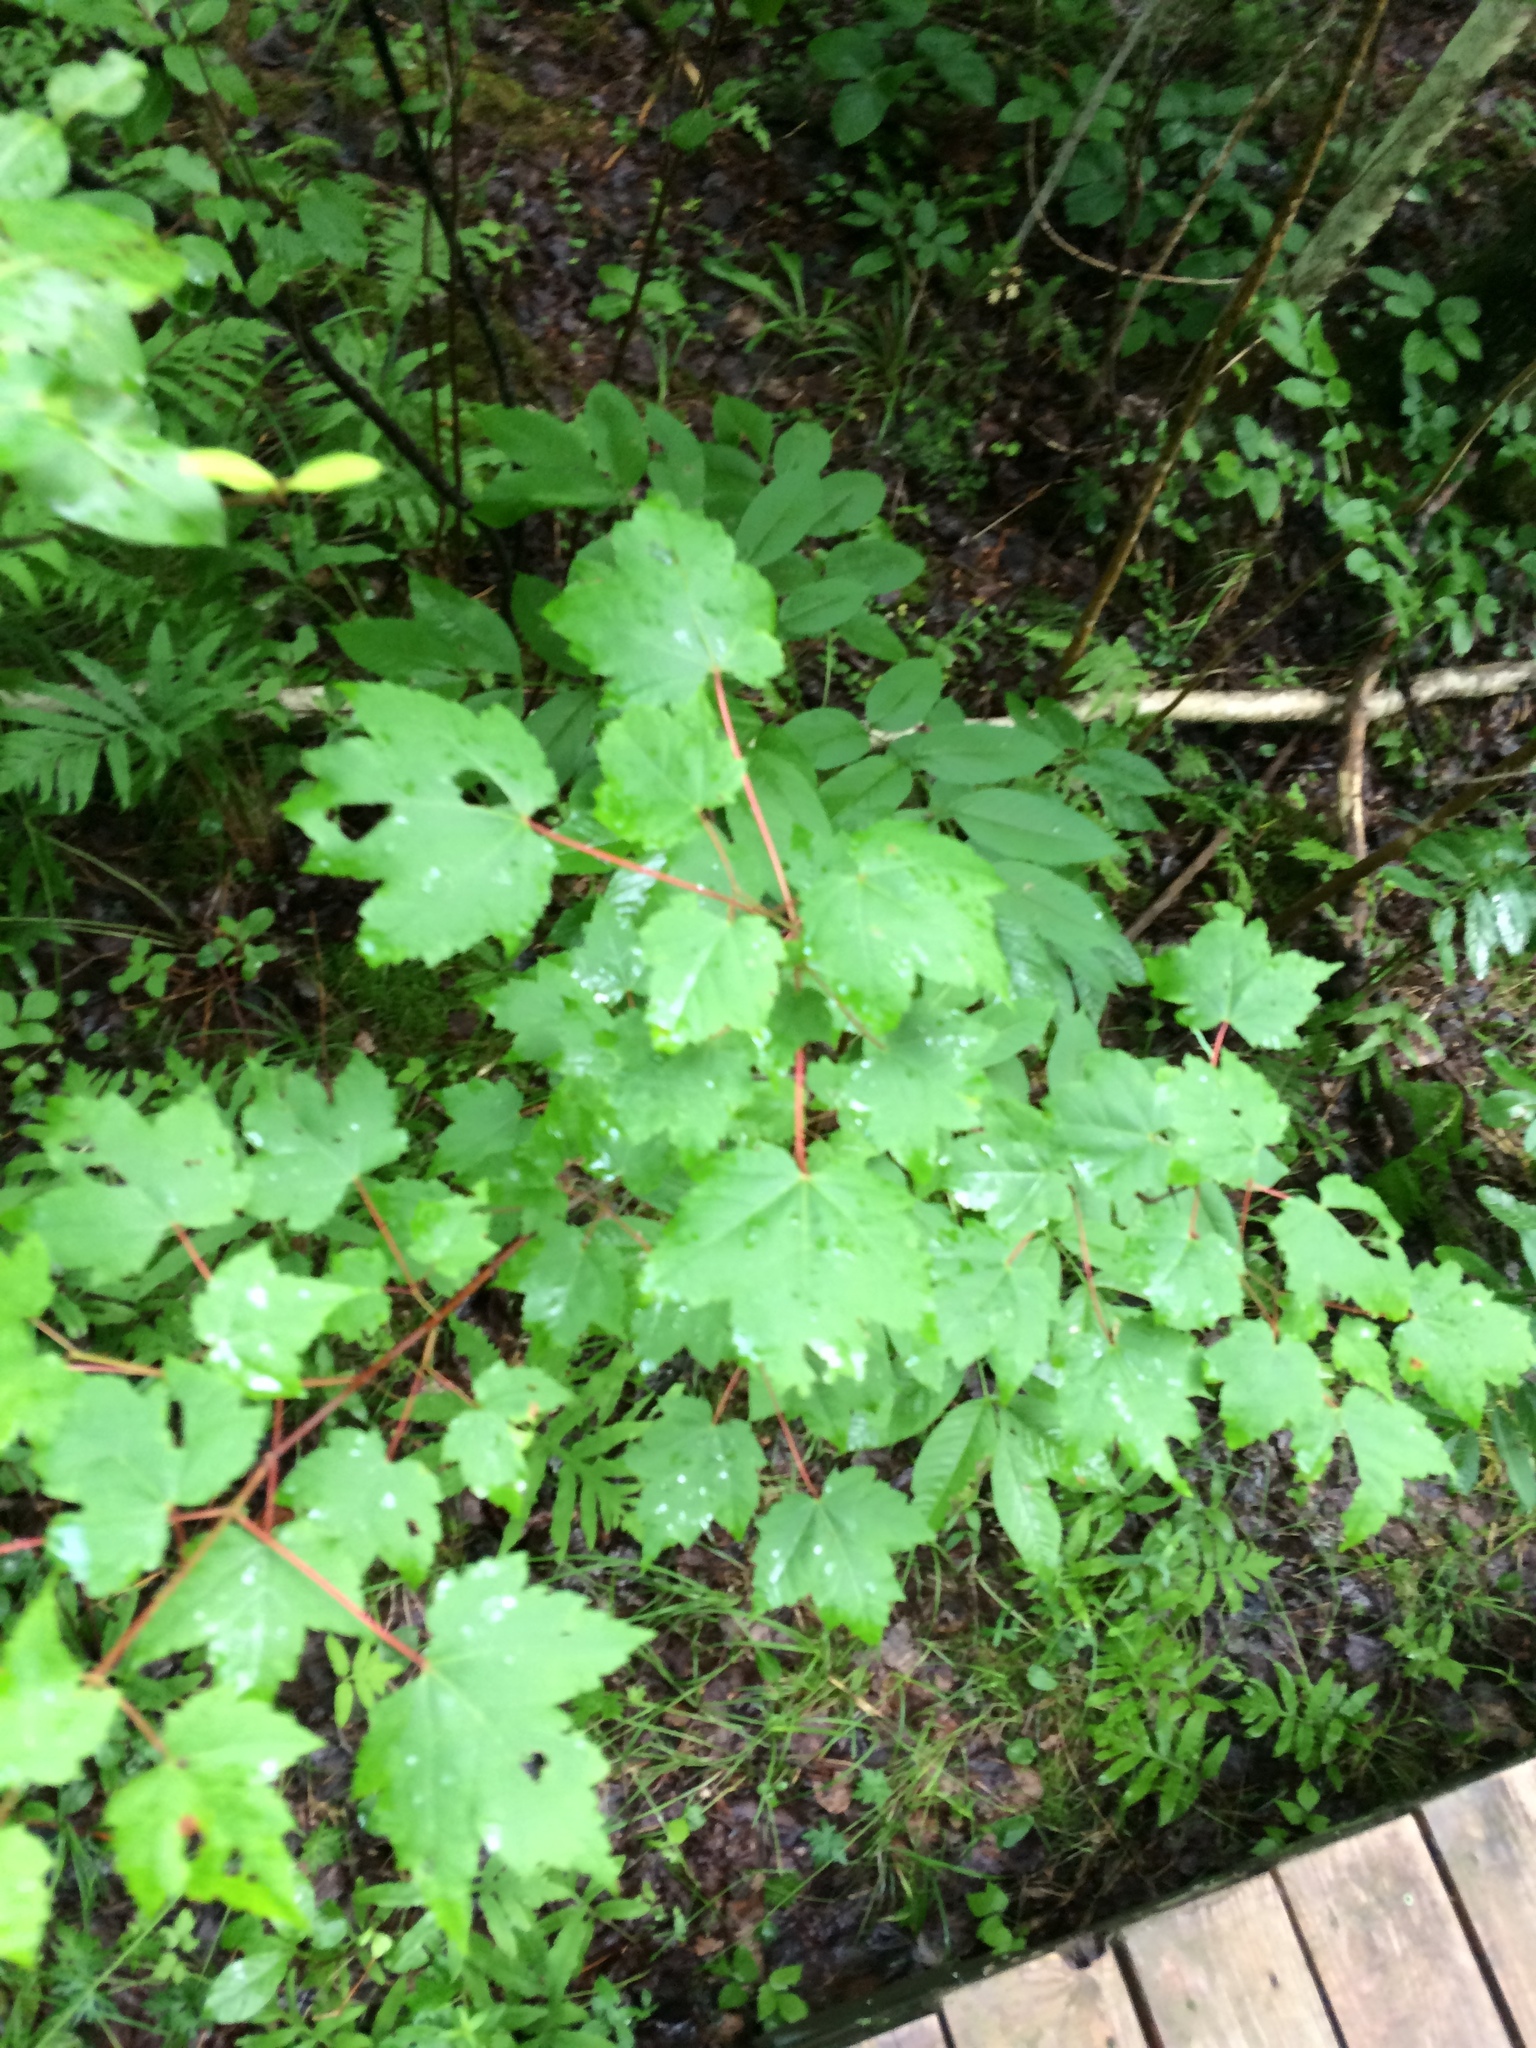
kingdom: Plantae
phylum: Tracheophyta
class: Magnoliopsida
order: Sapindales
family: Sapindaceae
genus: Acer
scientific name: Acer rubrum
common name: Red maple
